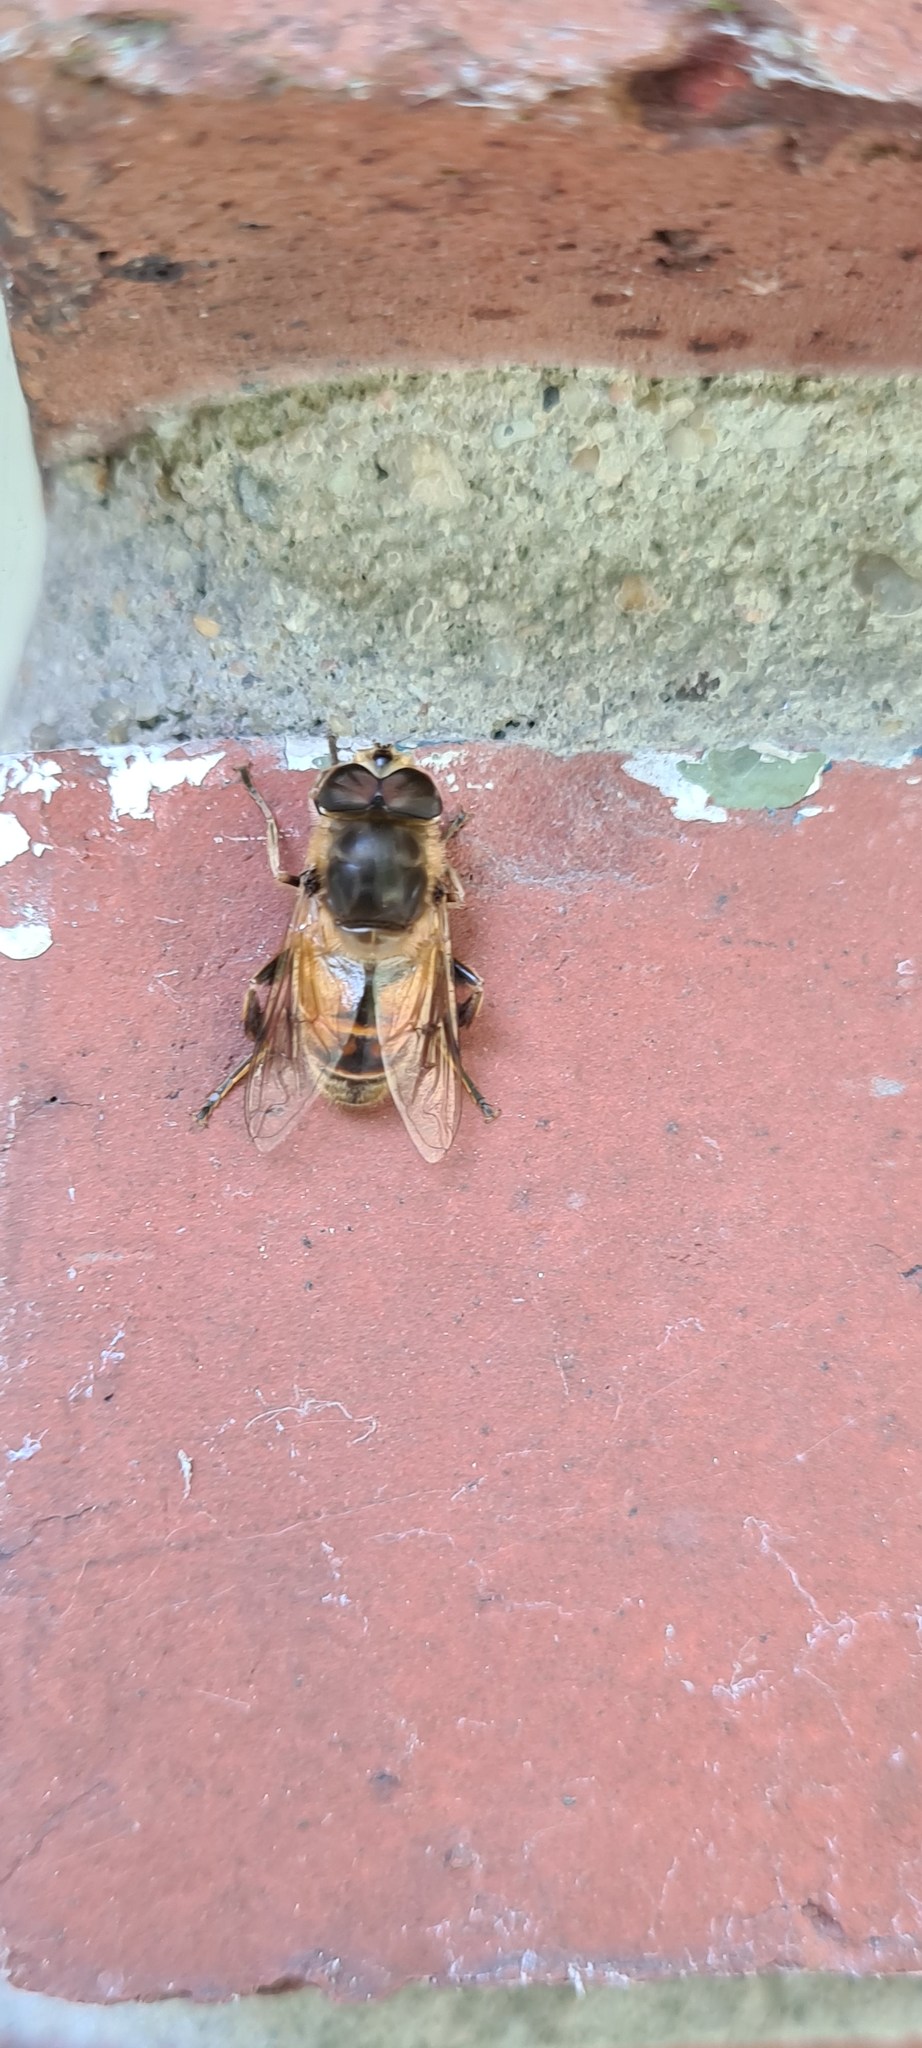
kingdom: Animalia
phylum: Arthropoda
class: Insecta
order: Diptera
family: Syrphidae
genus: Eristalis
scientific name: Eristalis tenax
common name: Drone fly
